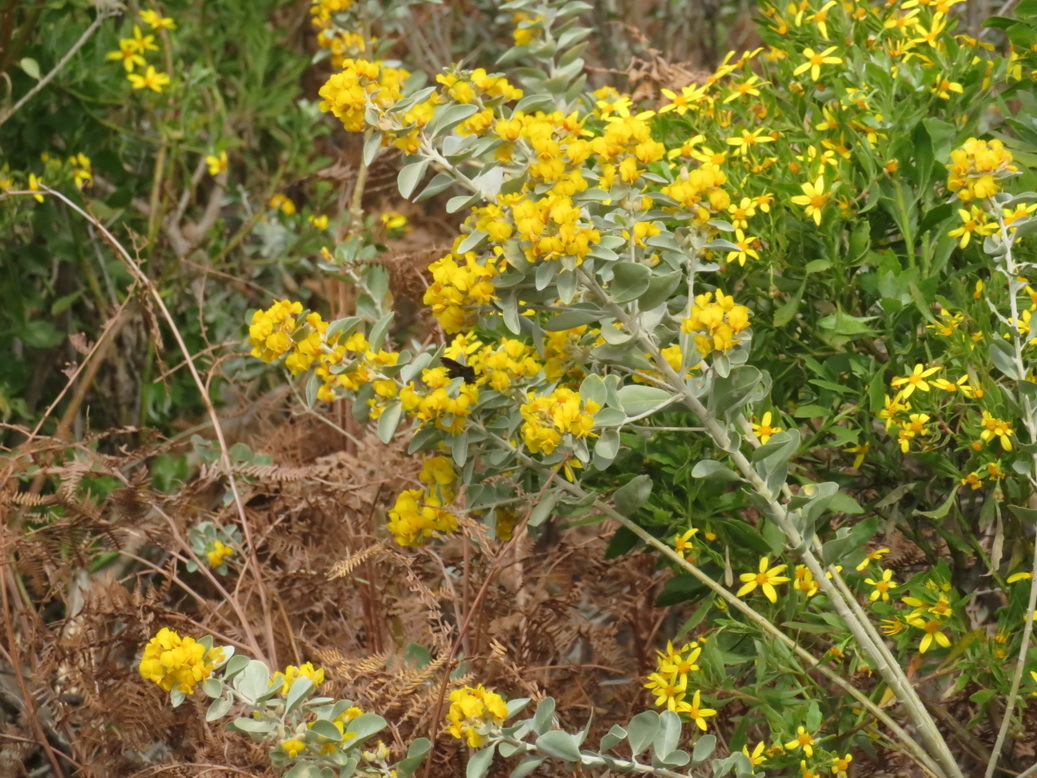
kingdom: Plantae
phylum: Tracheophyta
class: Magnoliopsida
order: Fabales
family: Fabaceae
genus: Stirtonanthus
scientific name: Stirtonanthus taylorianus
